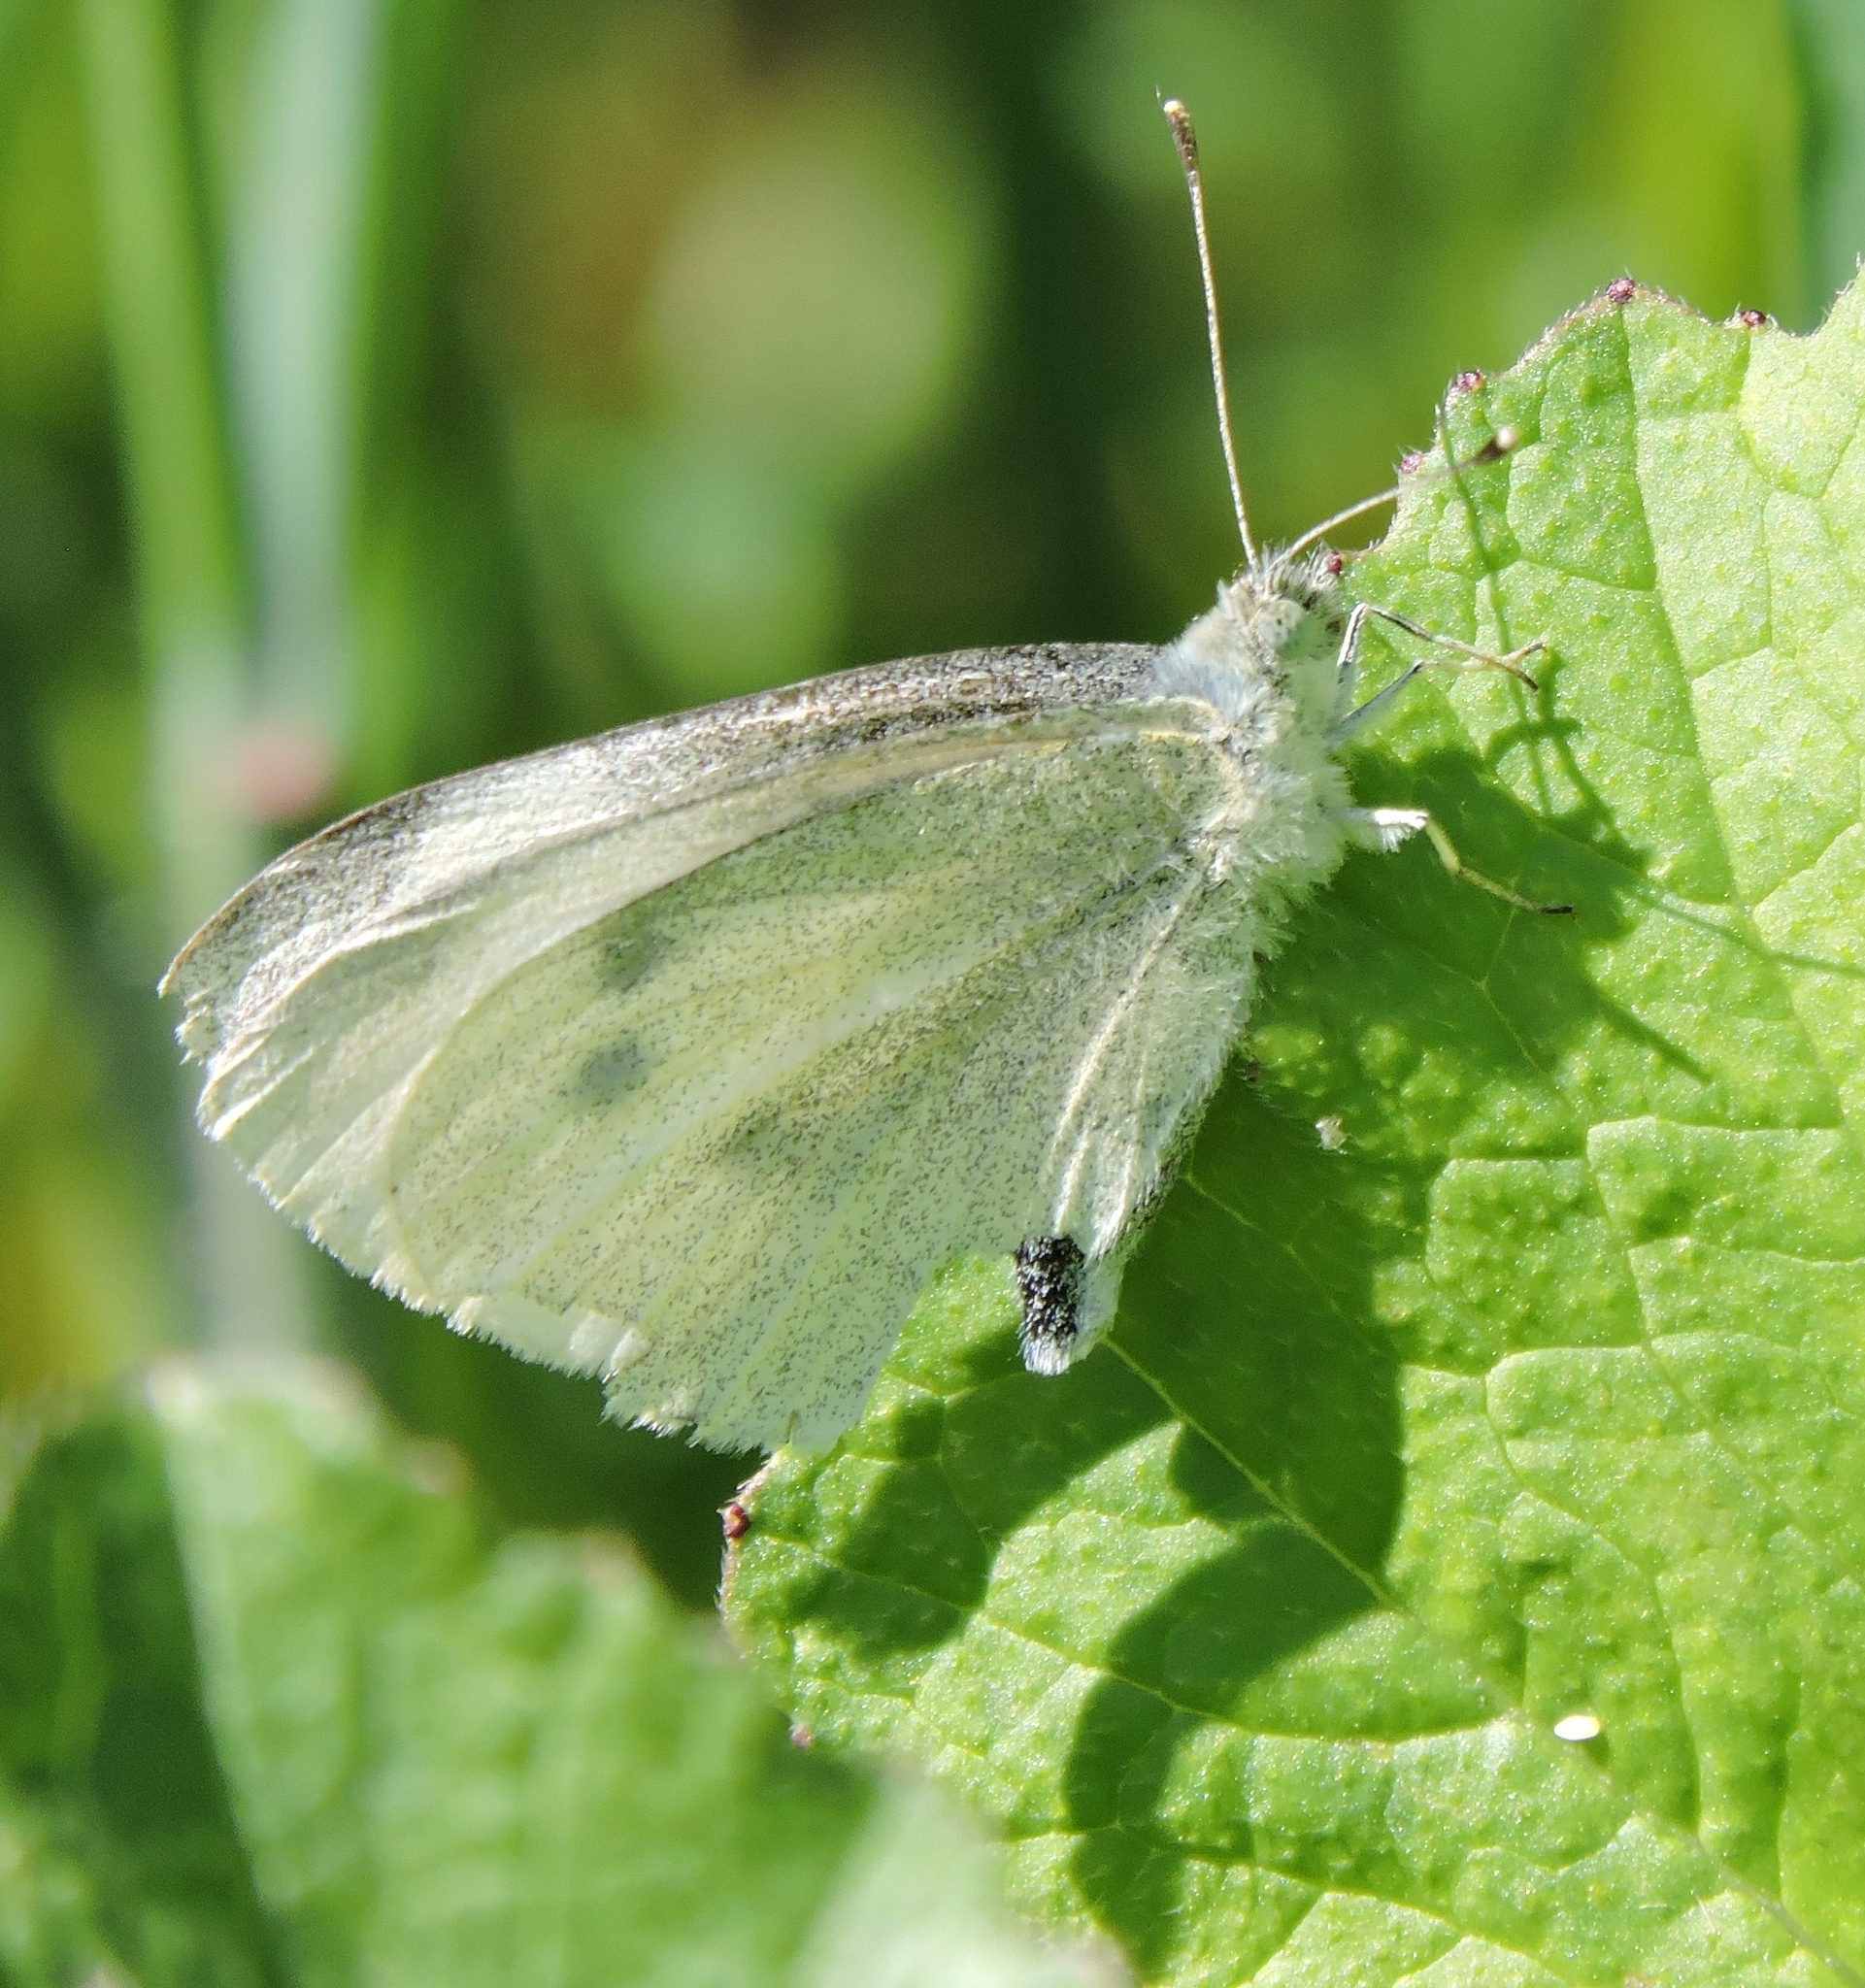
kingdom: Animalia
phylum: Arthropoda
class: Insecta
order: Lepidoptera
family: Pieridae
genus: Pieris
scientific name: Pieris rapae
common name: Small white
